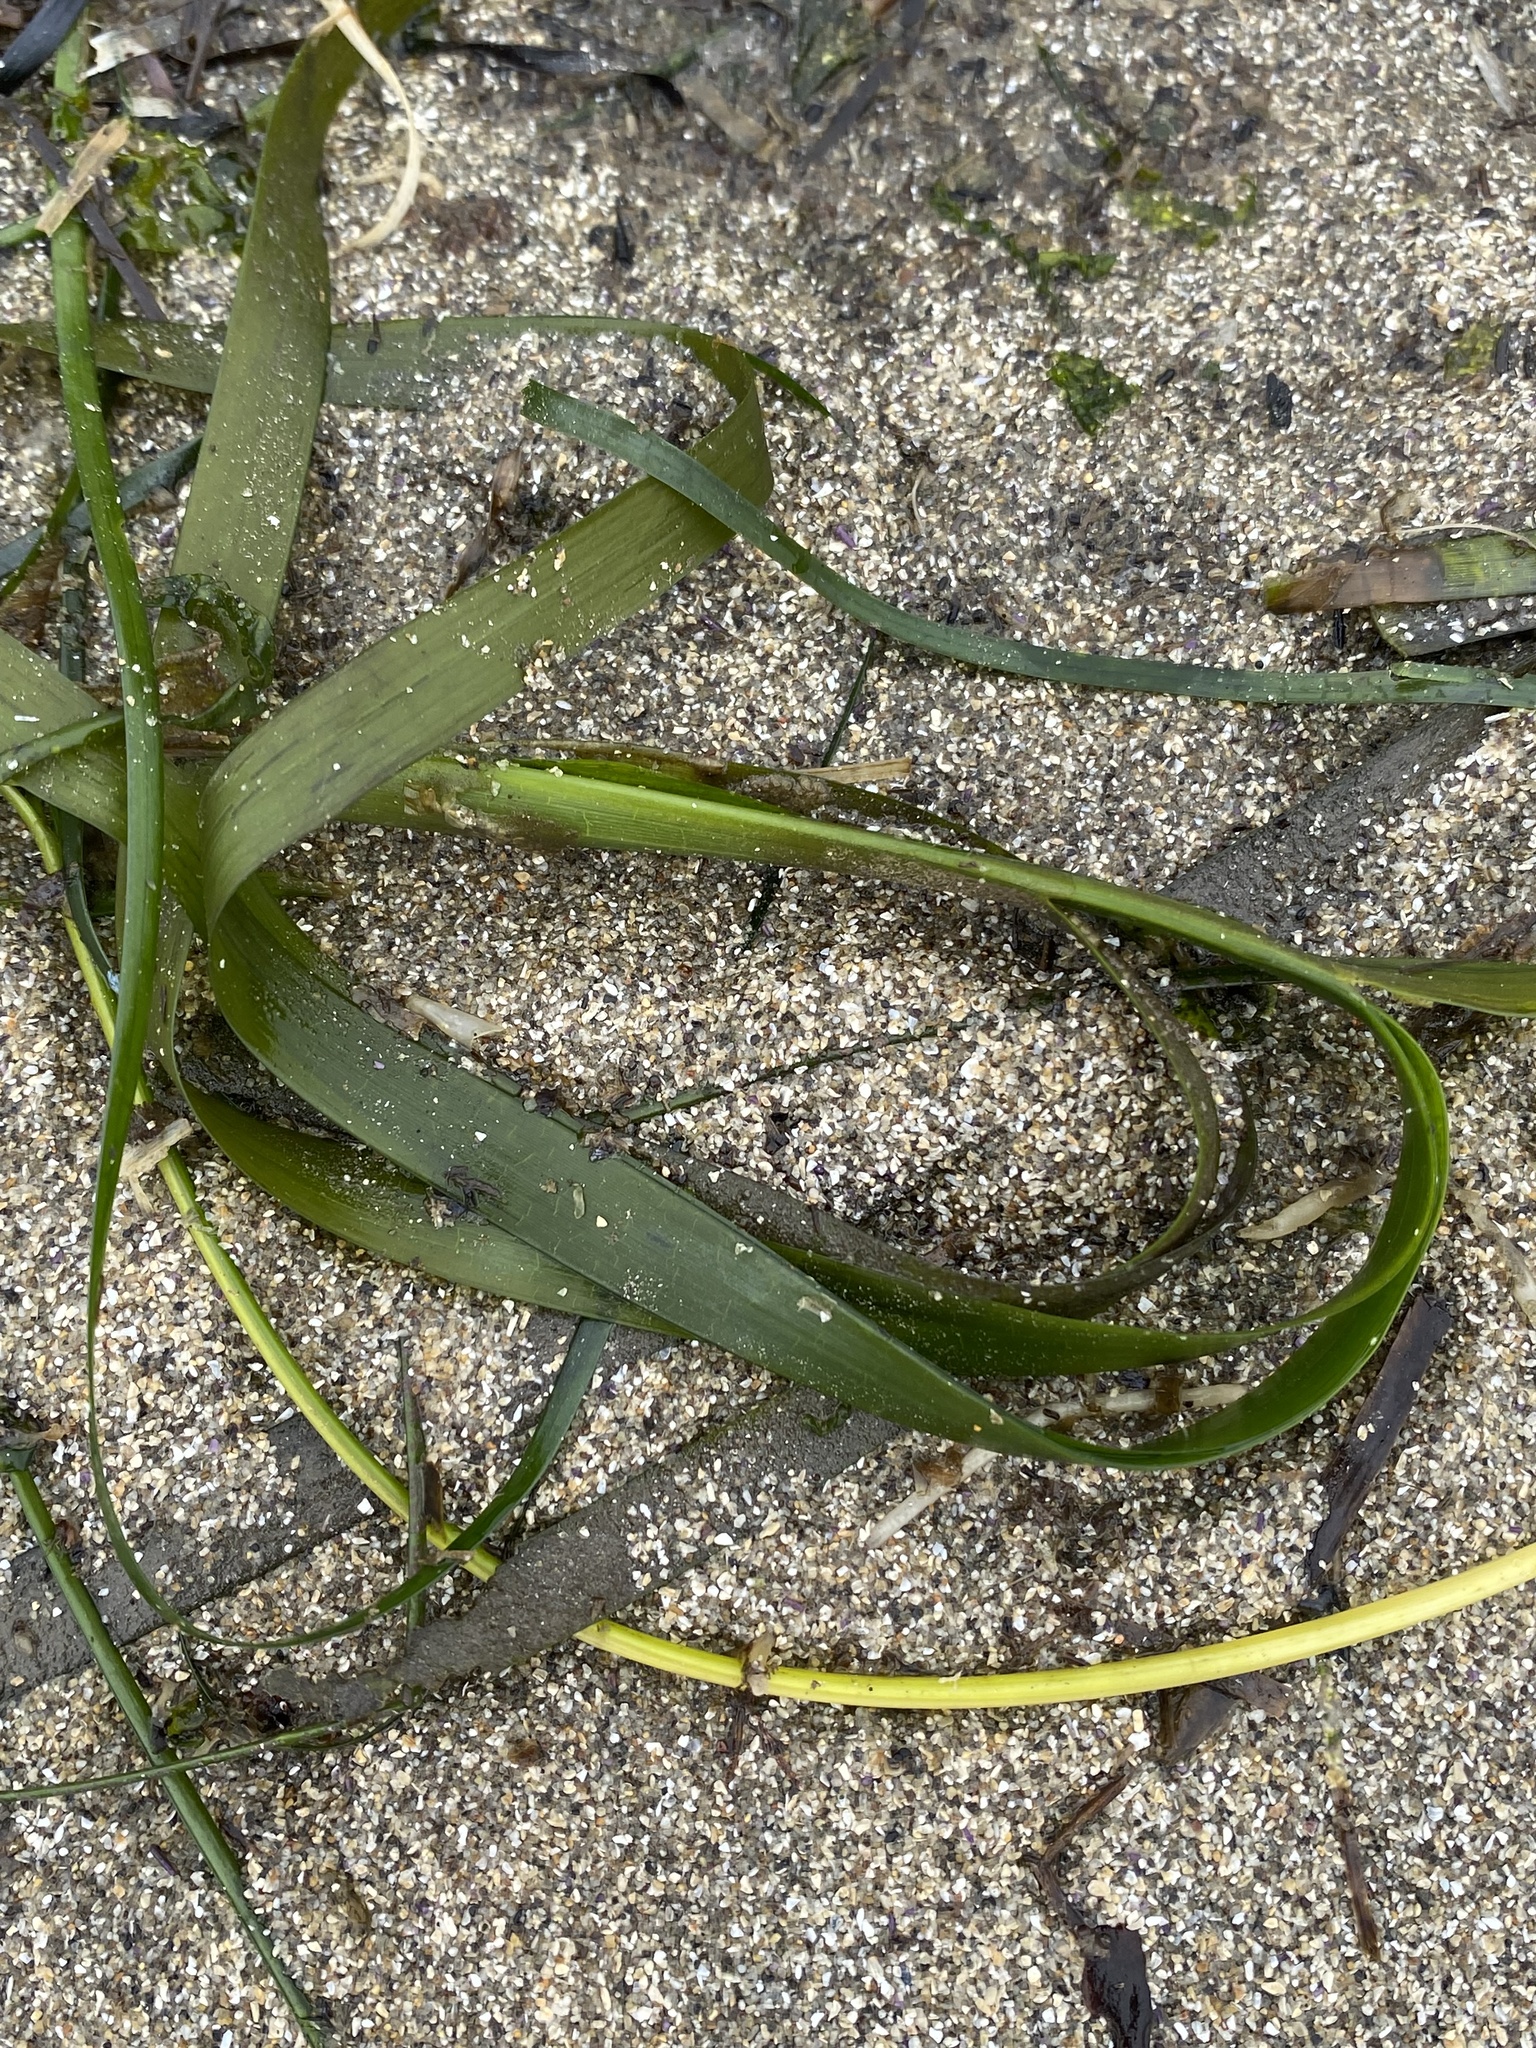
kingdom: Plantae
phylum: Tracheophyta
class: Liliopsida
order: Alismatales
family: Zosteraceae
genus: Zostera
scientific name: Zostera marina
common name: Eelgrass
